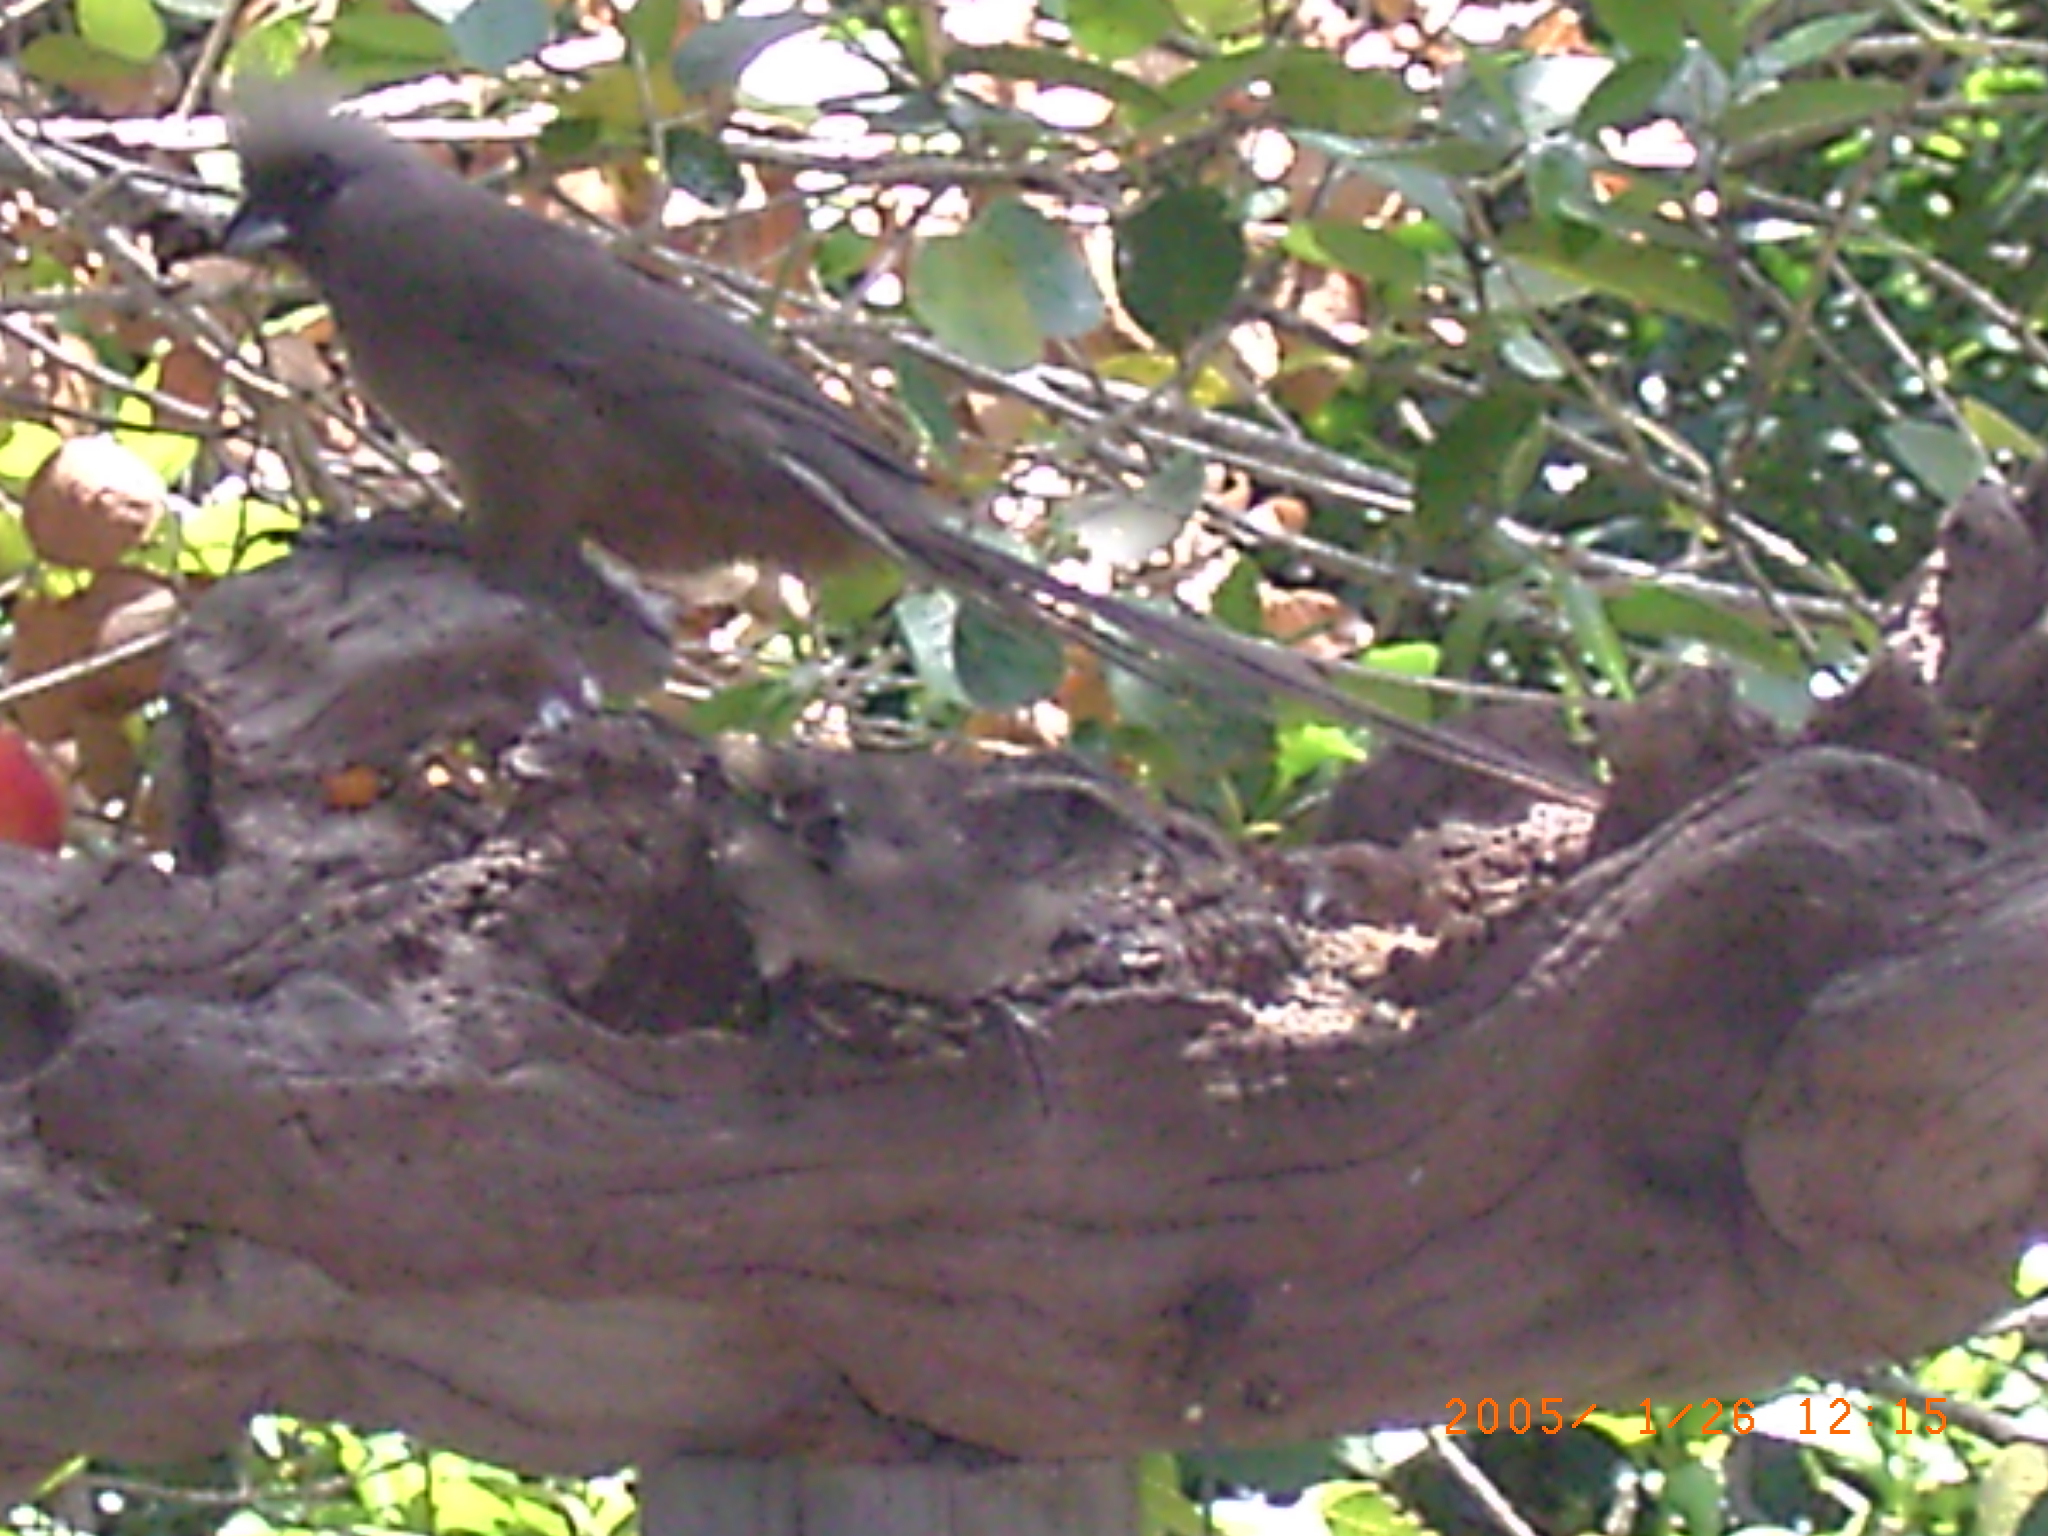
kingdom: Animalia
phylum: Chordata
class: Aves
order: Coliiformes
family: Coliidae
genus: Colius
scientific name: Colius striatus
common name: Speckled mousebird
